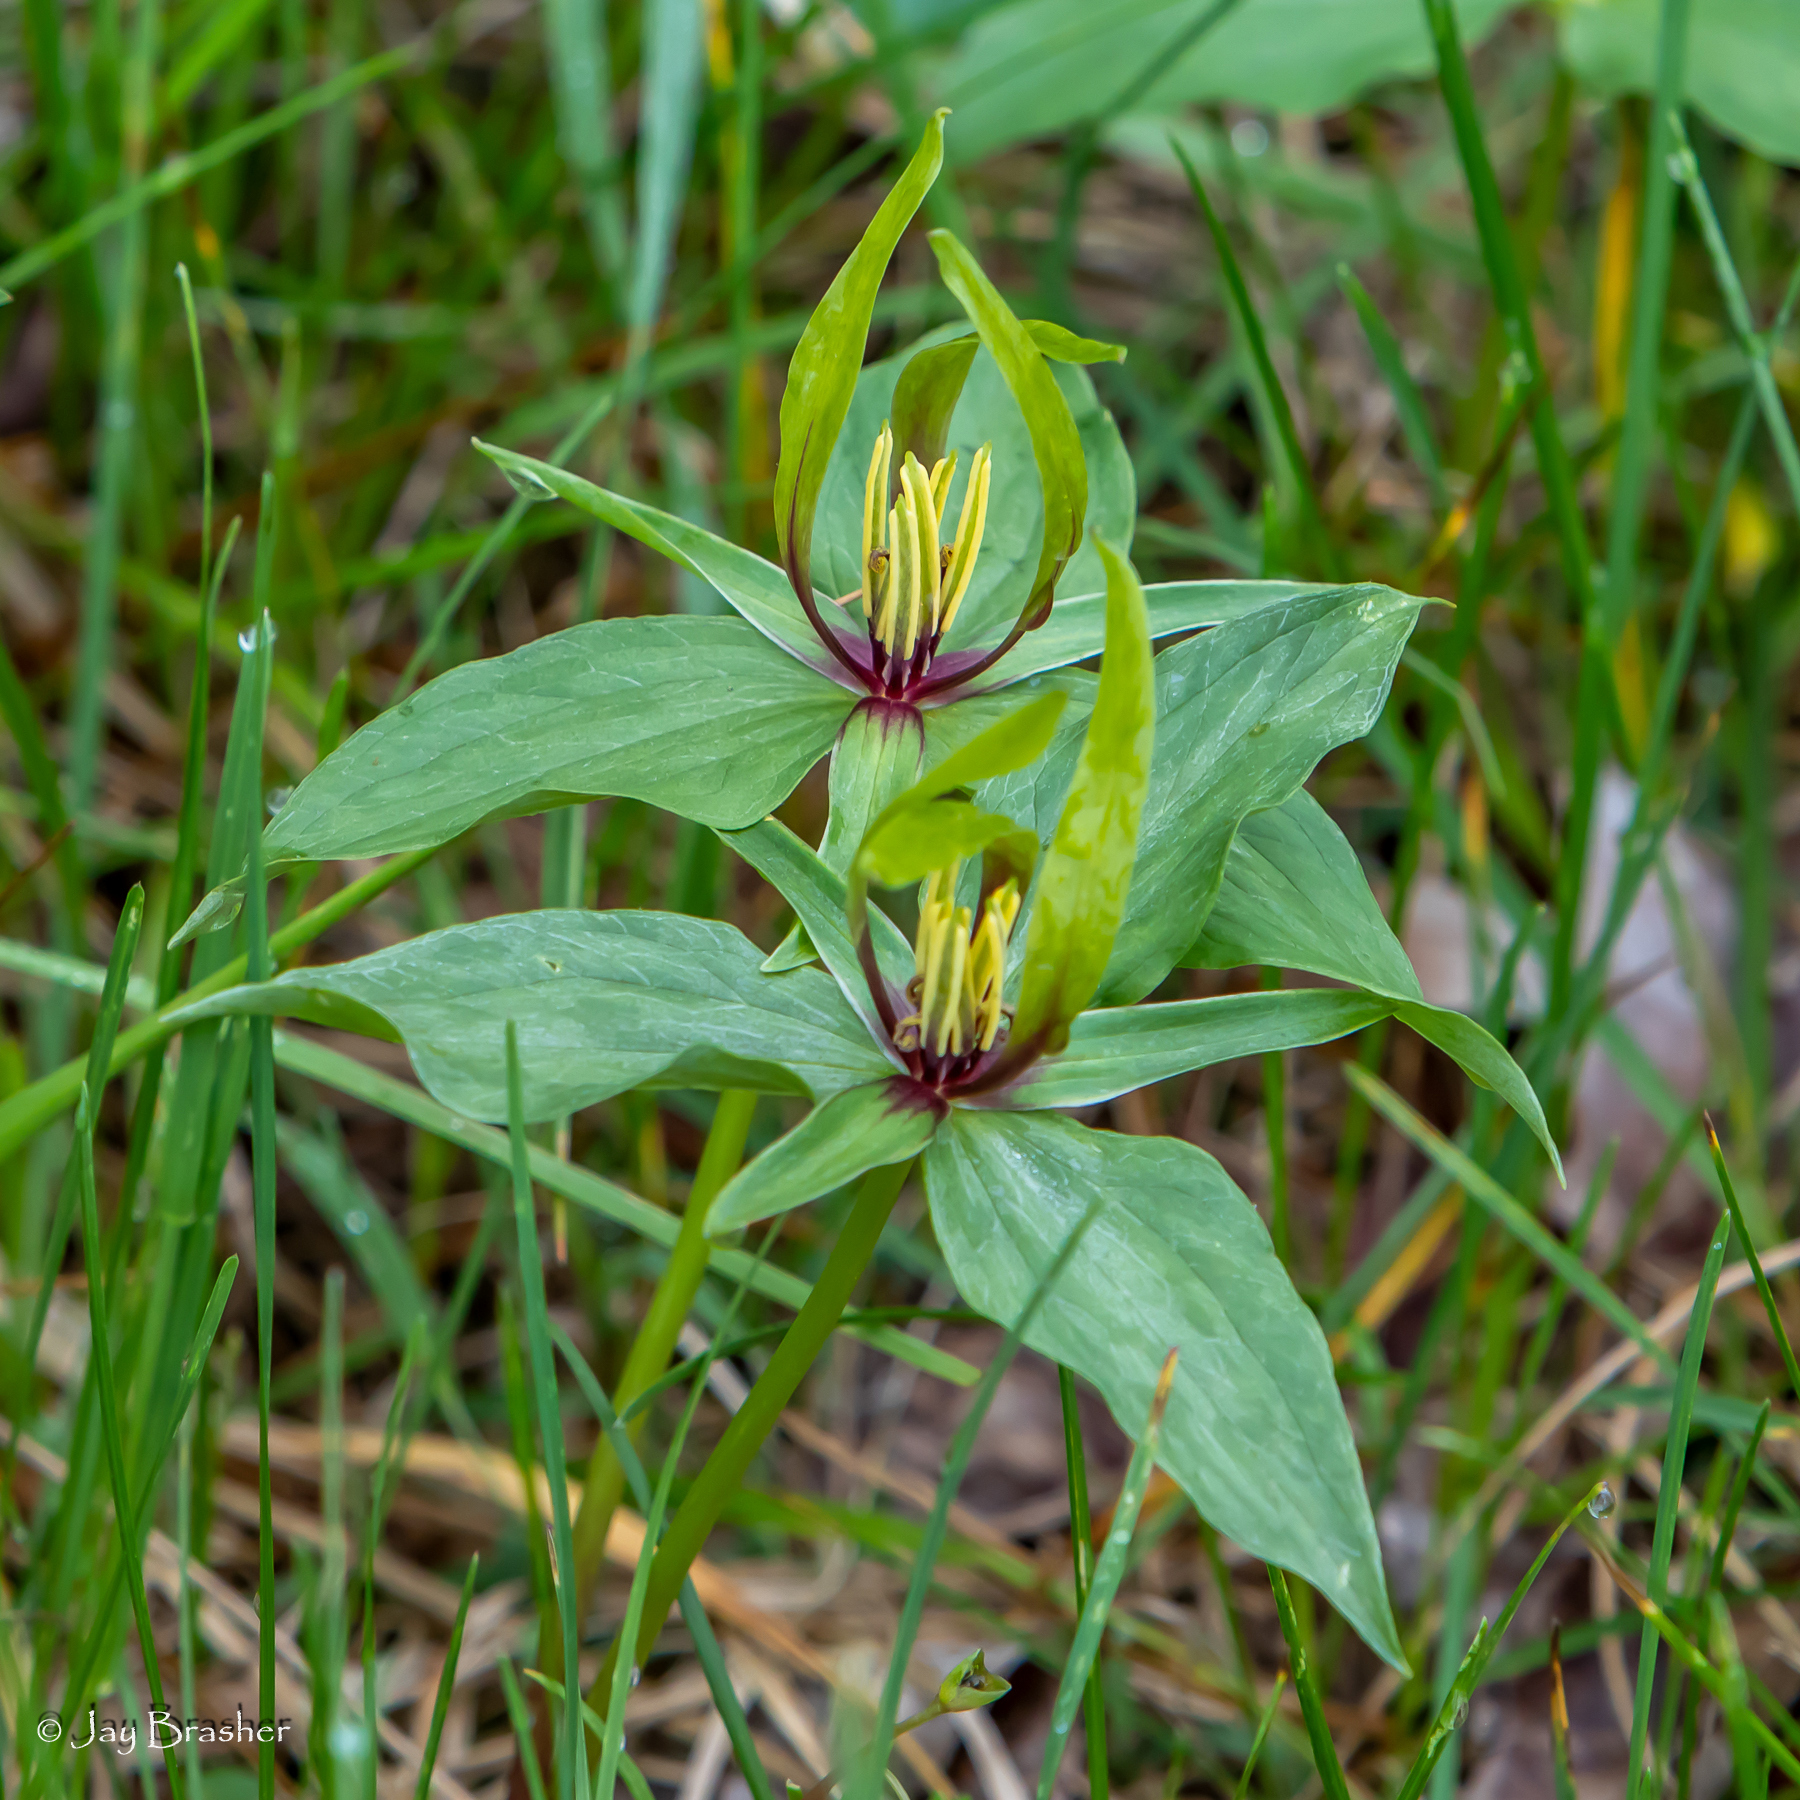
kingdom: Plantae
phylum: Tracheophyta
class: Liliopsida
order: Liliales
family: Melanthiaceae
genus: Trillium
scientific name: Trillium viridescens
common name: Ozark green trillium
